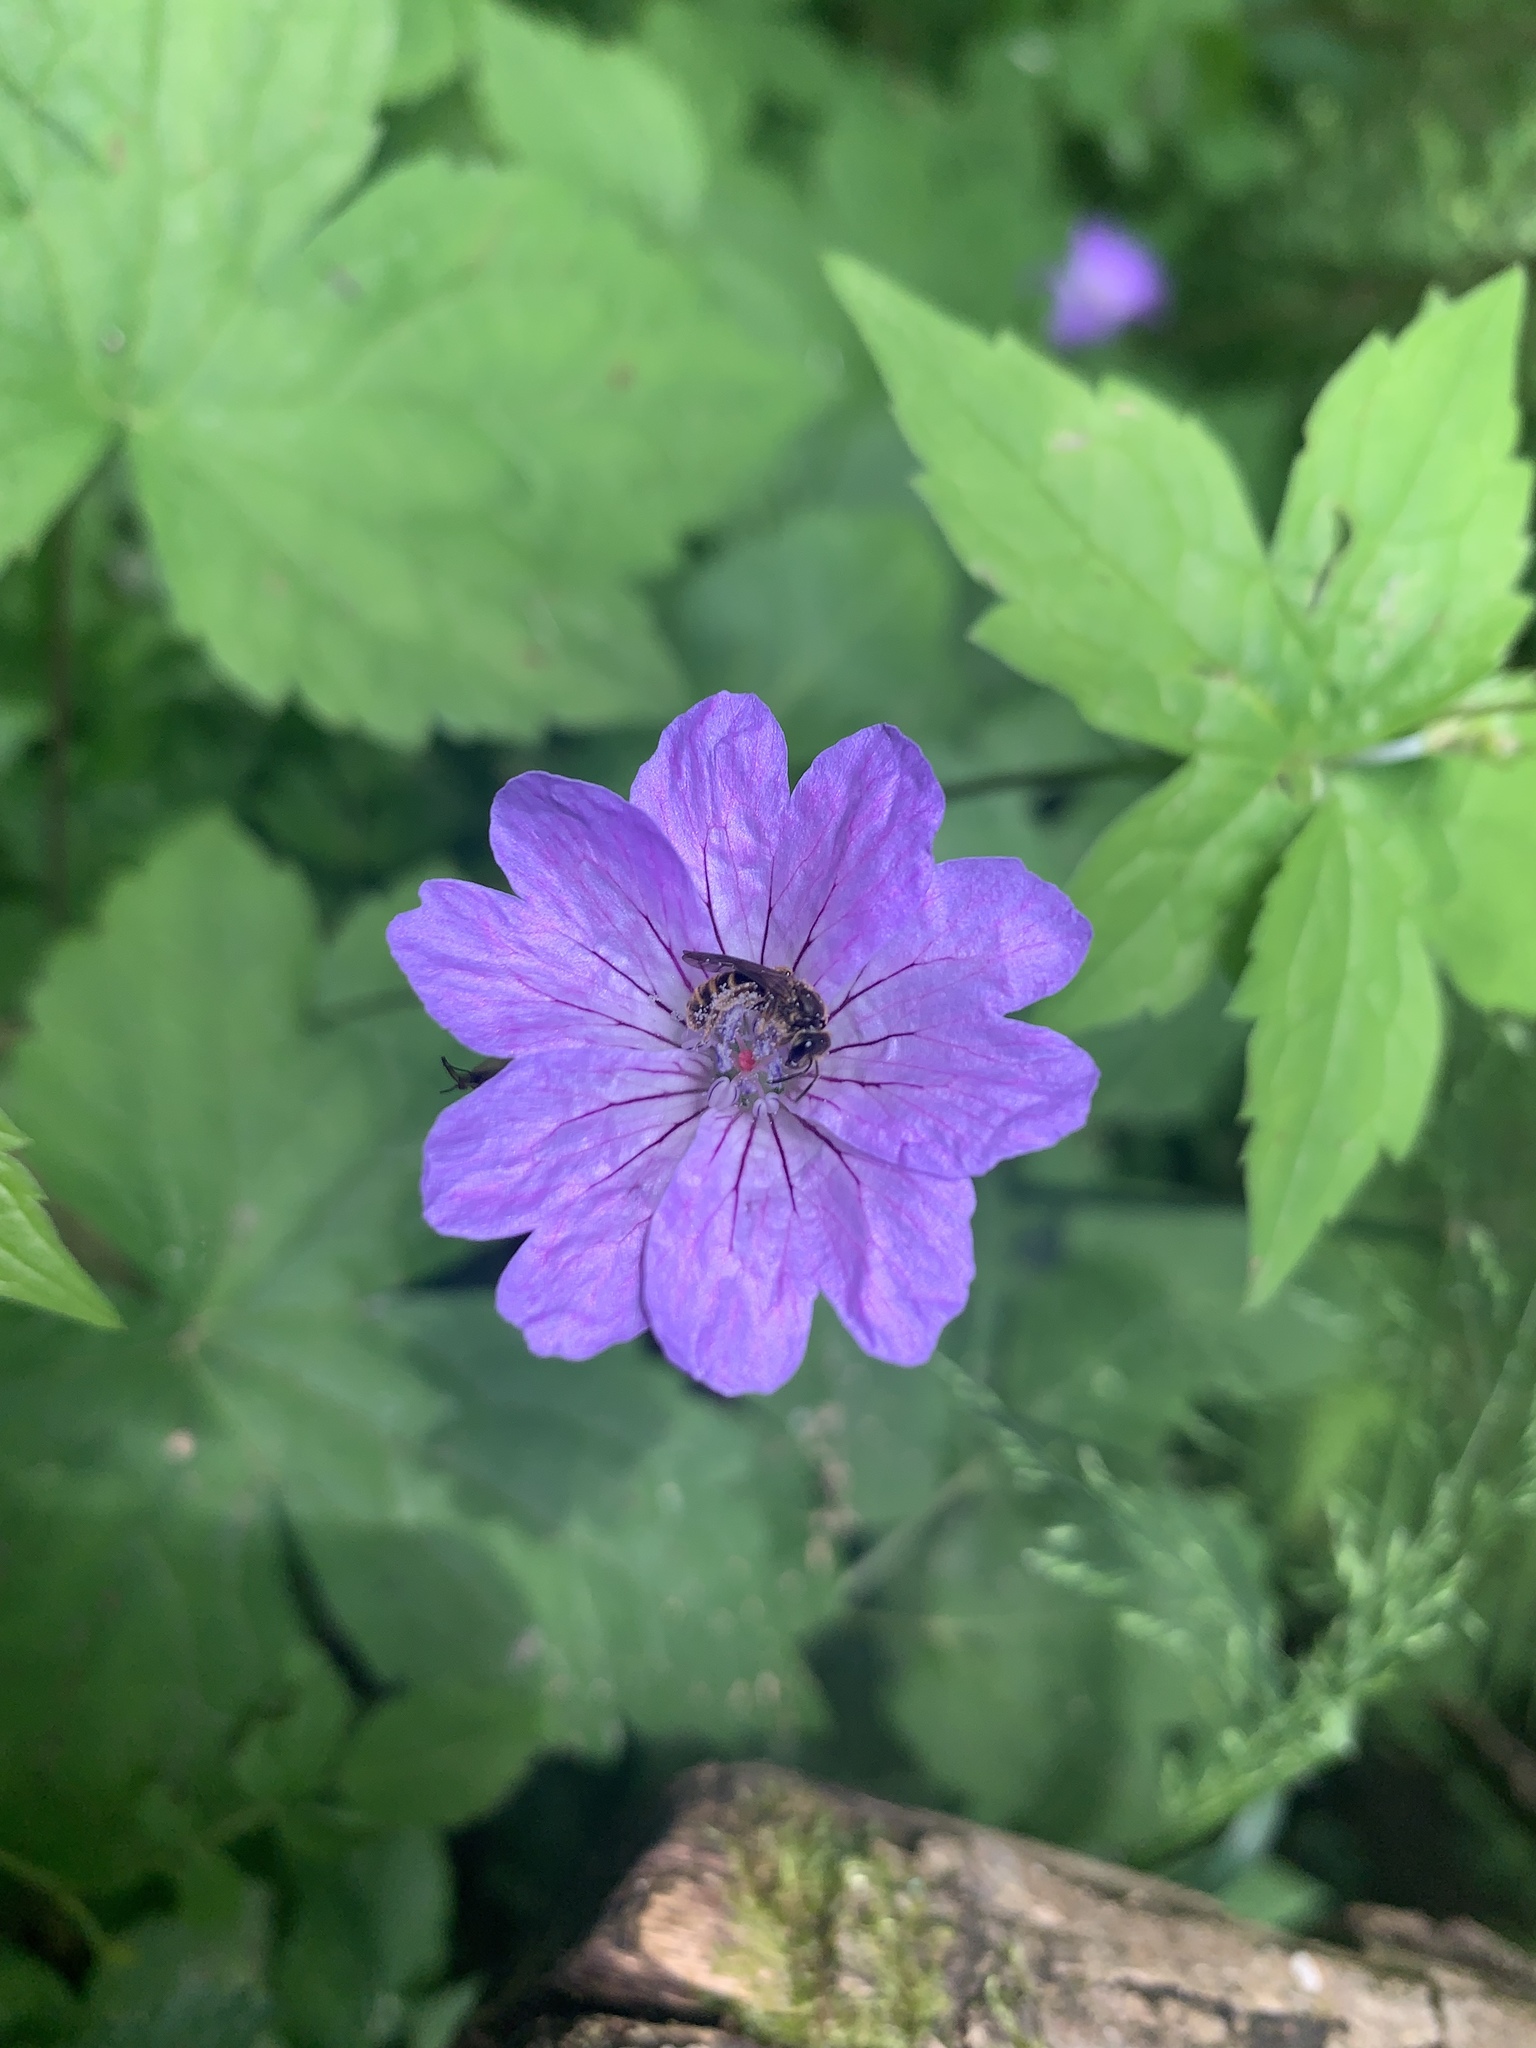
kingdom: Plantae
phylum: Tracheophyta
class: Magnoliopsida
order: Geraniales
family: Geraniaceae
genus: Geranium
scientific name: Geranium nodosum
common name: Knotted crane's-bill
